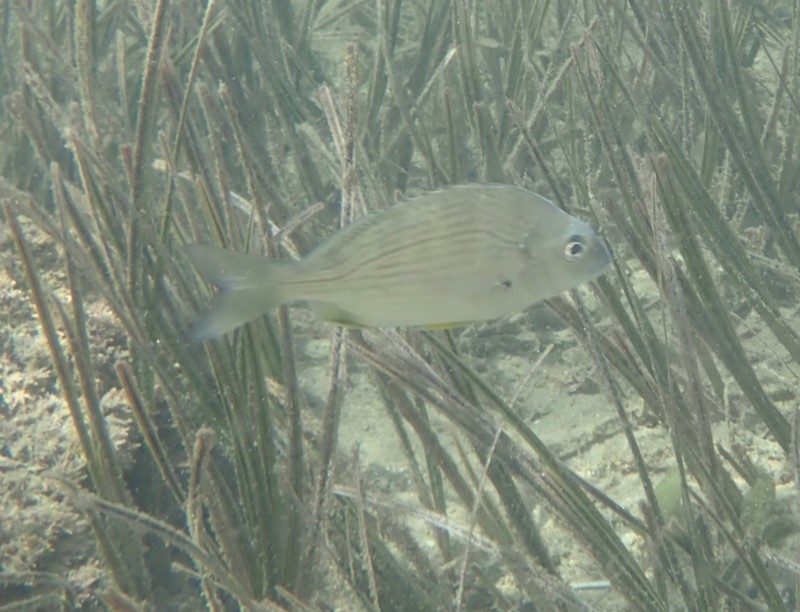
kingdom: Animalia
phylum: Chordata
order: Perciformes
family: Sparidae
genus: Acanthopagrus
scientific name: Acanthopagrus australis
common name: Surf bream
